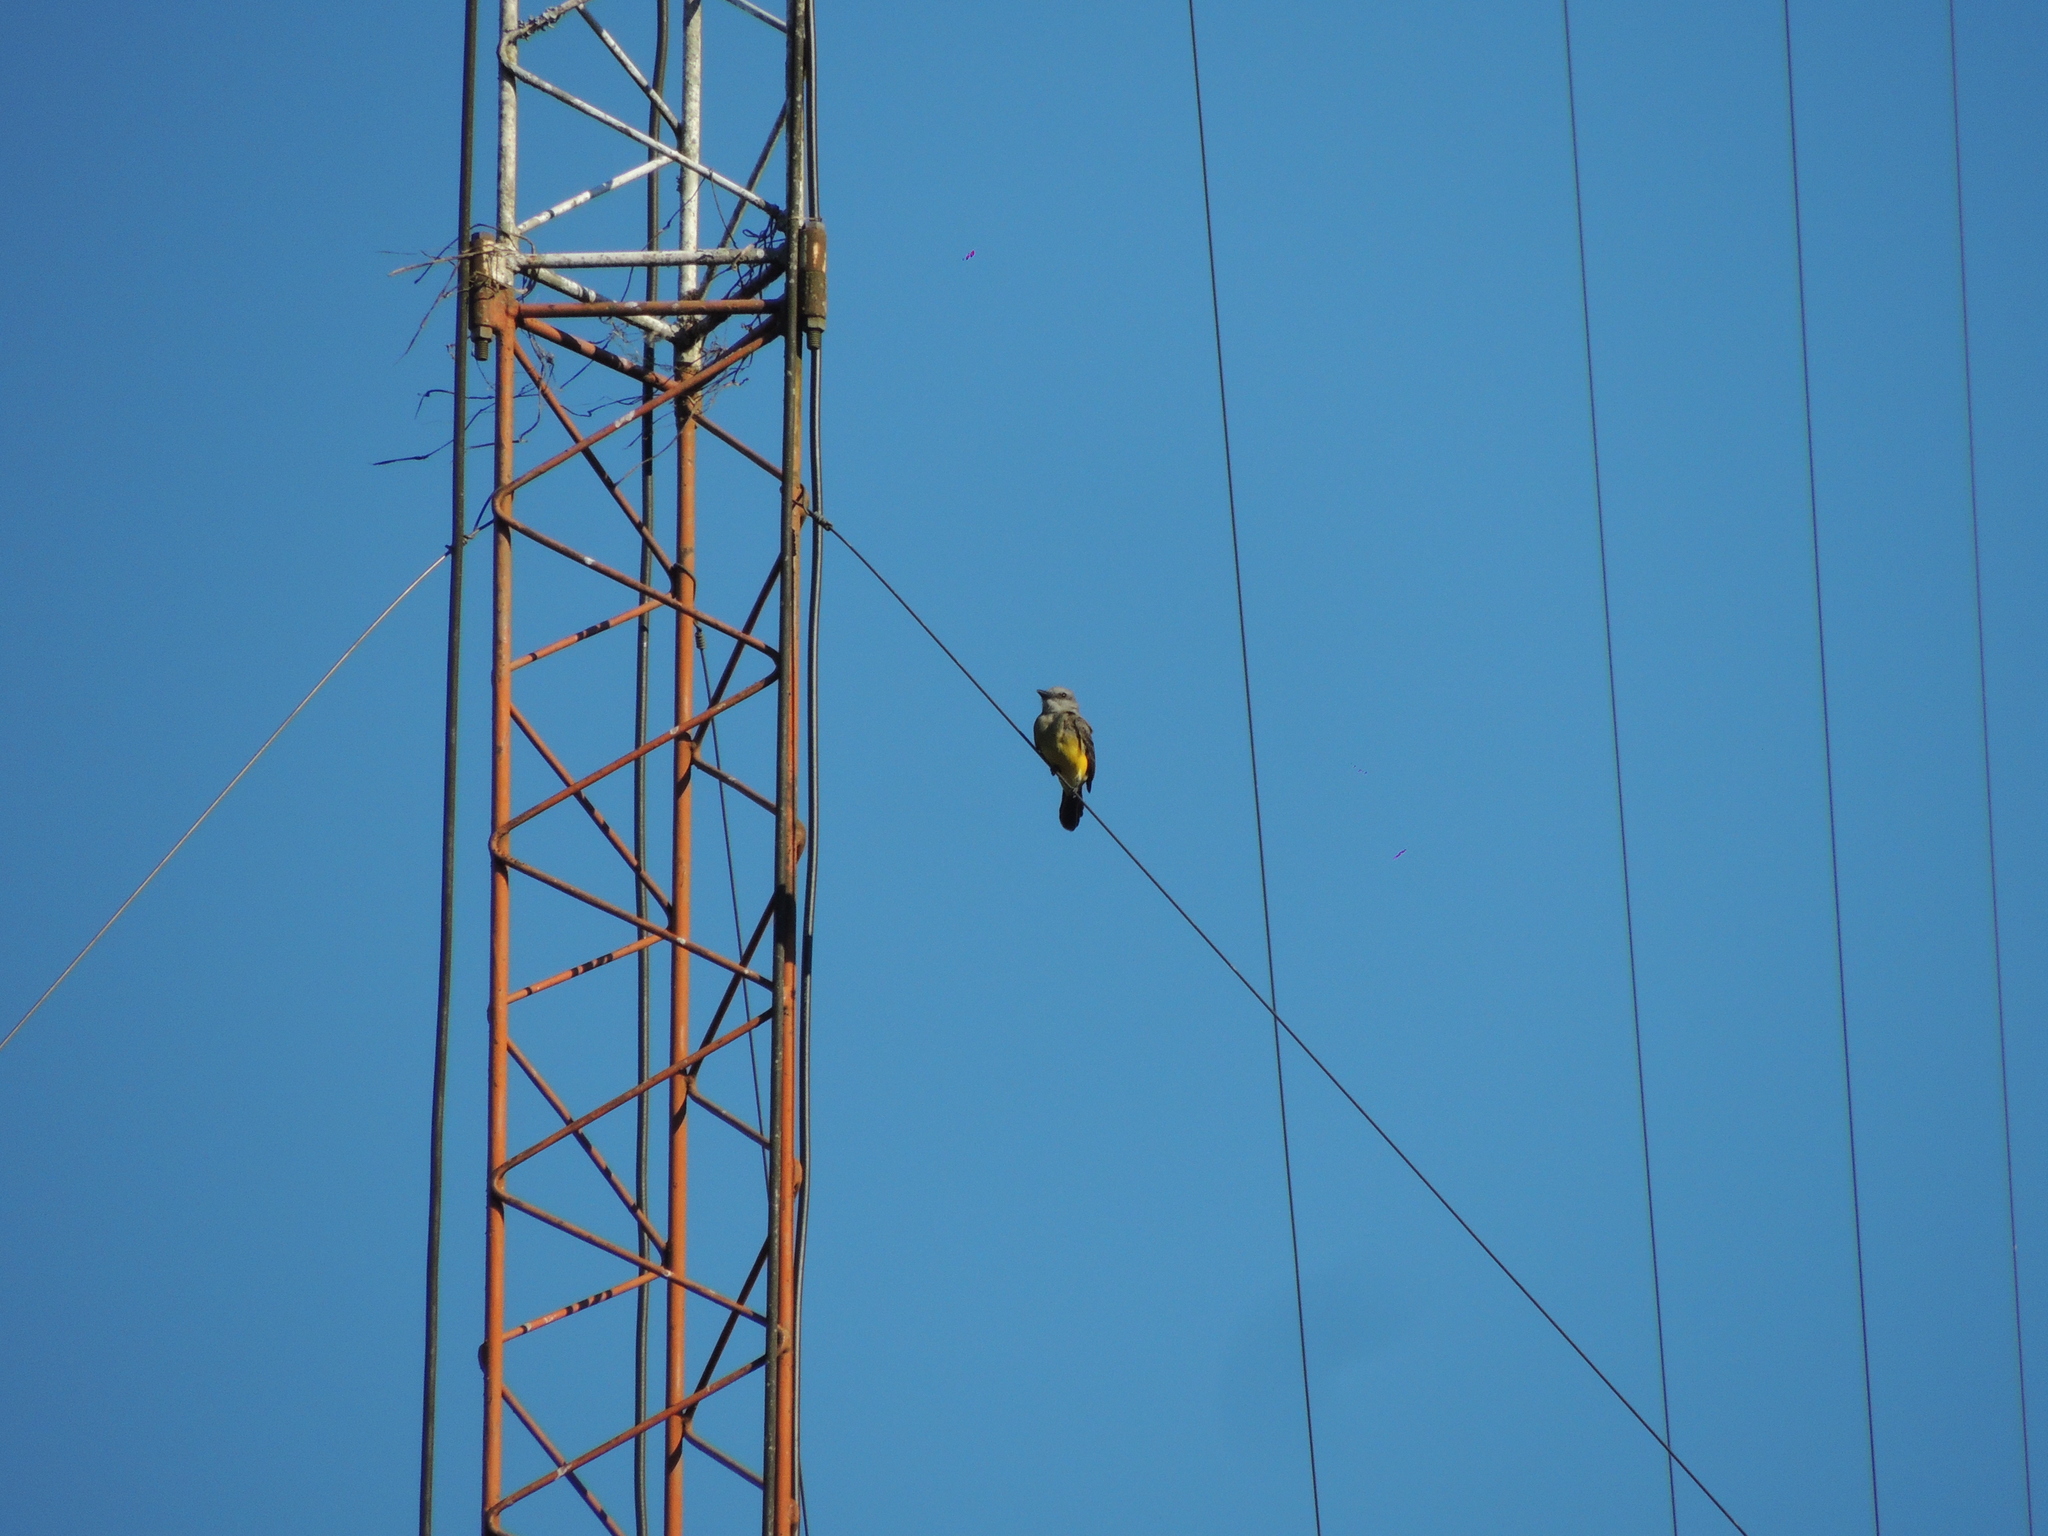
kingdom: Animalia
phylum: Chordata
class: Aves
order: Passeriformes
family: Tyrannidae
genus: Tyrannus
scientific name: Tyrannus melancholicus
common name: Tropical kingbird
